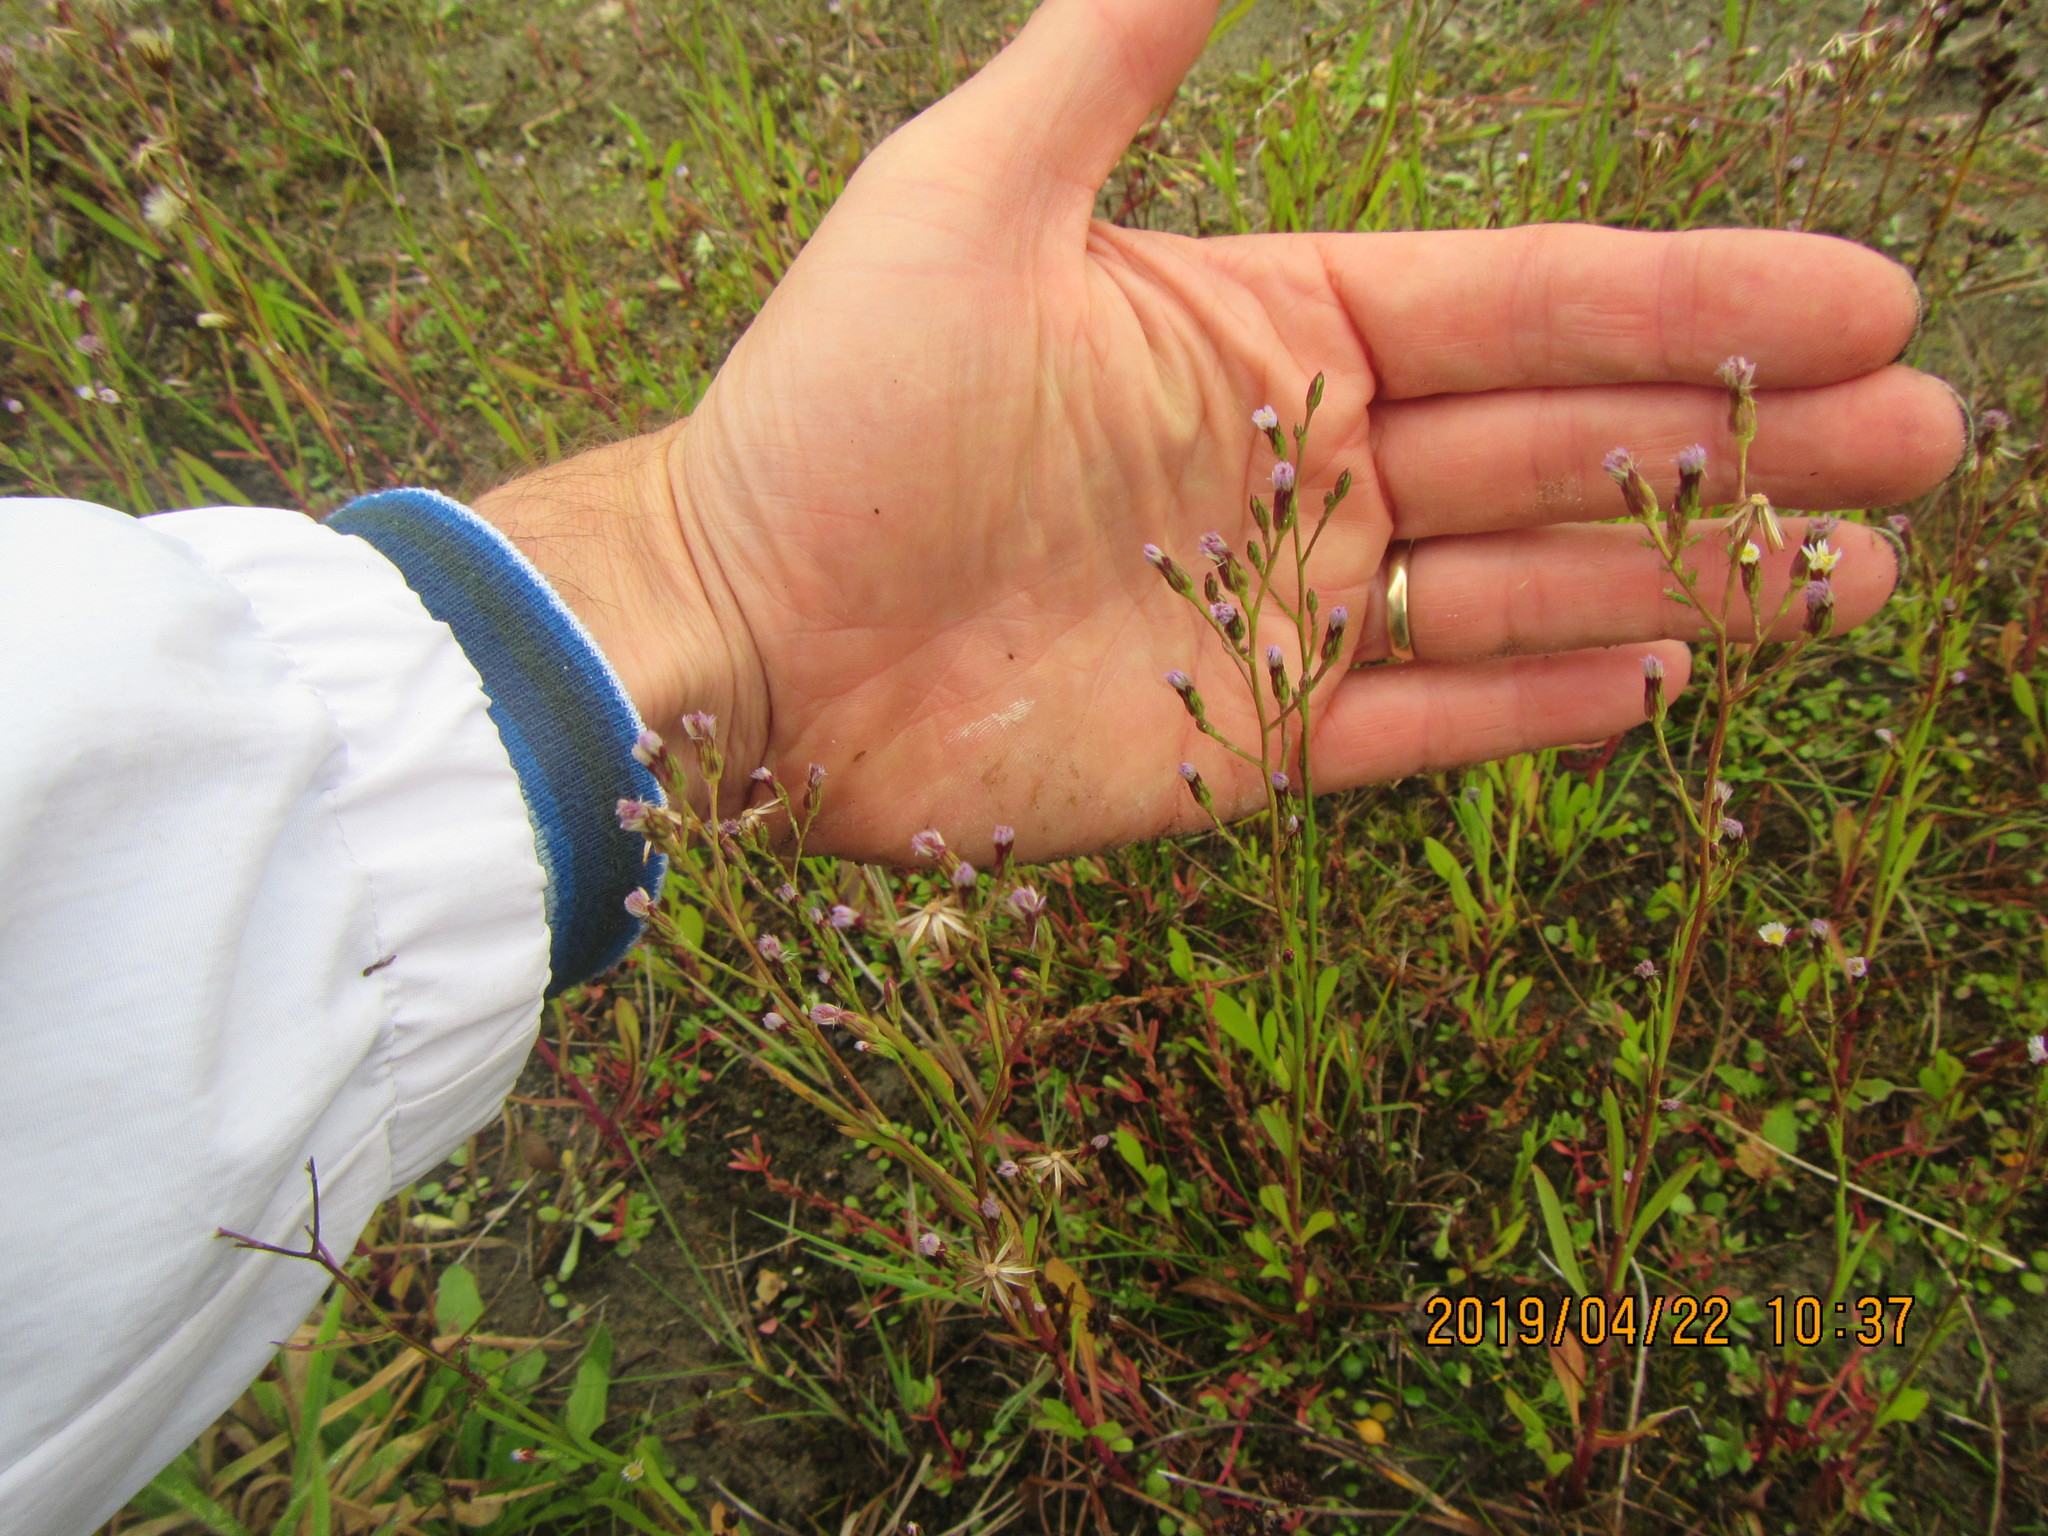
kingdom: Plantae
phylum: Tracheophyta
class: Magnoliopsida
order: Asterales
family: Asteraceae
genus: Symphyotrichum
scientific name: Symphyotrichum subulatum
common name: Annual saltmarsh aster
